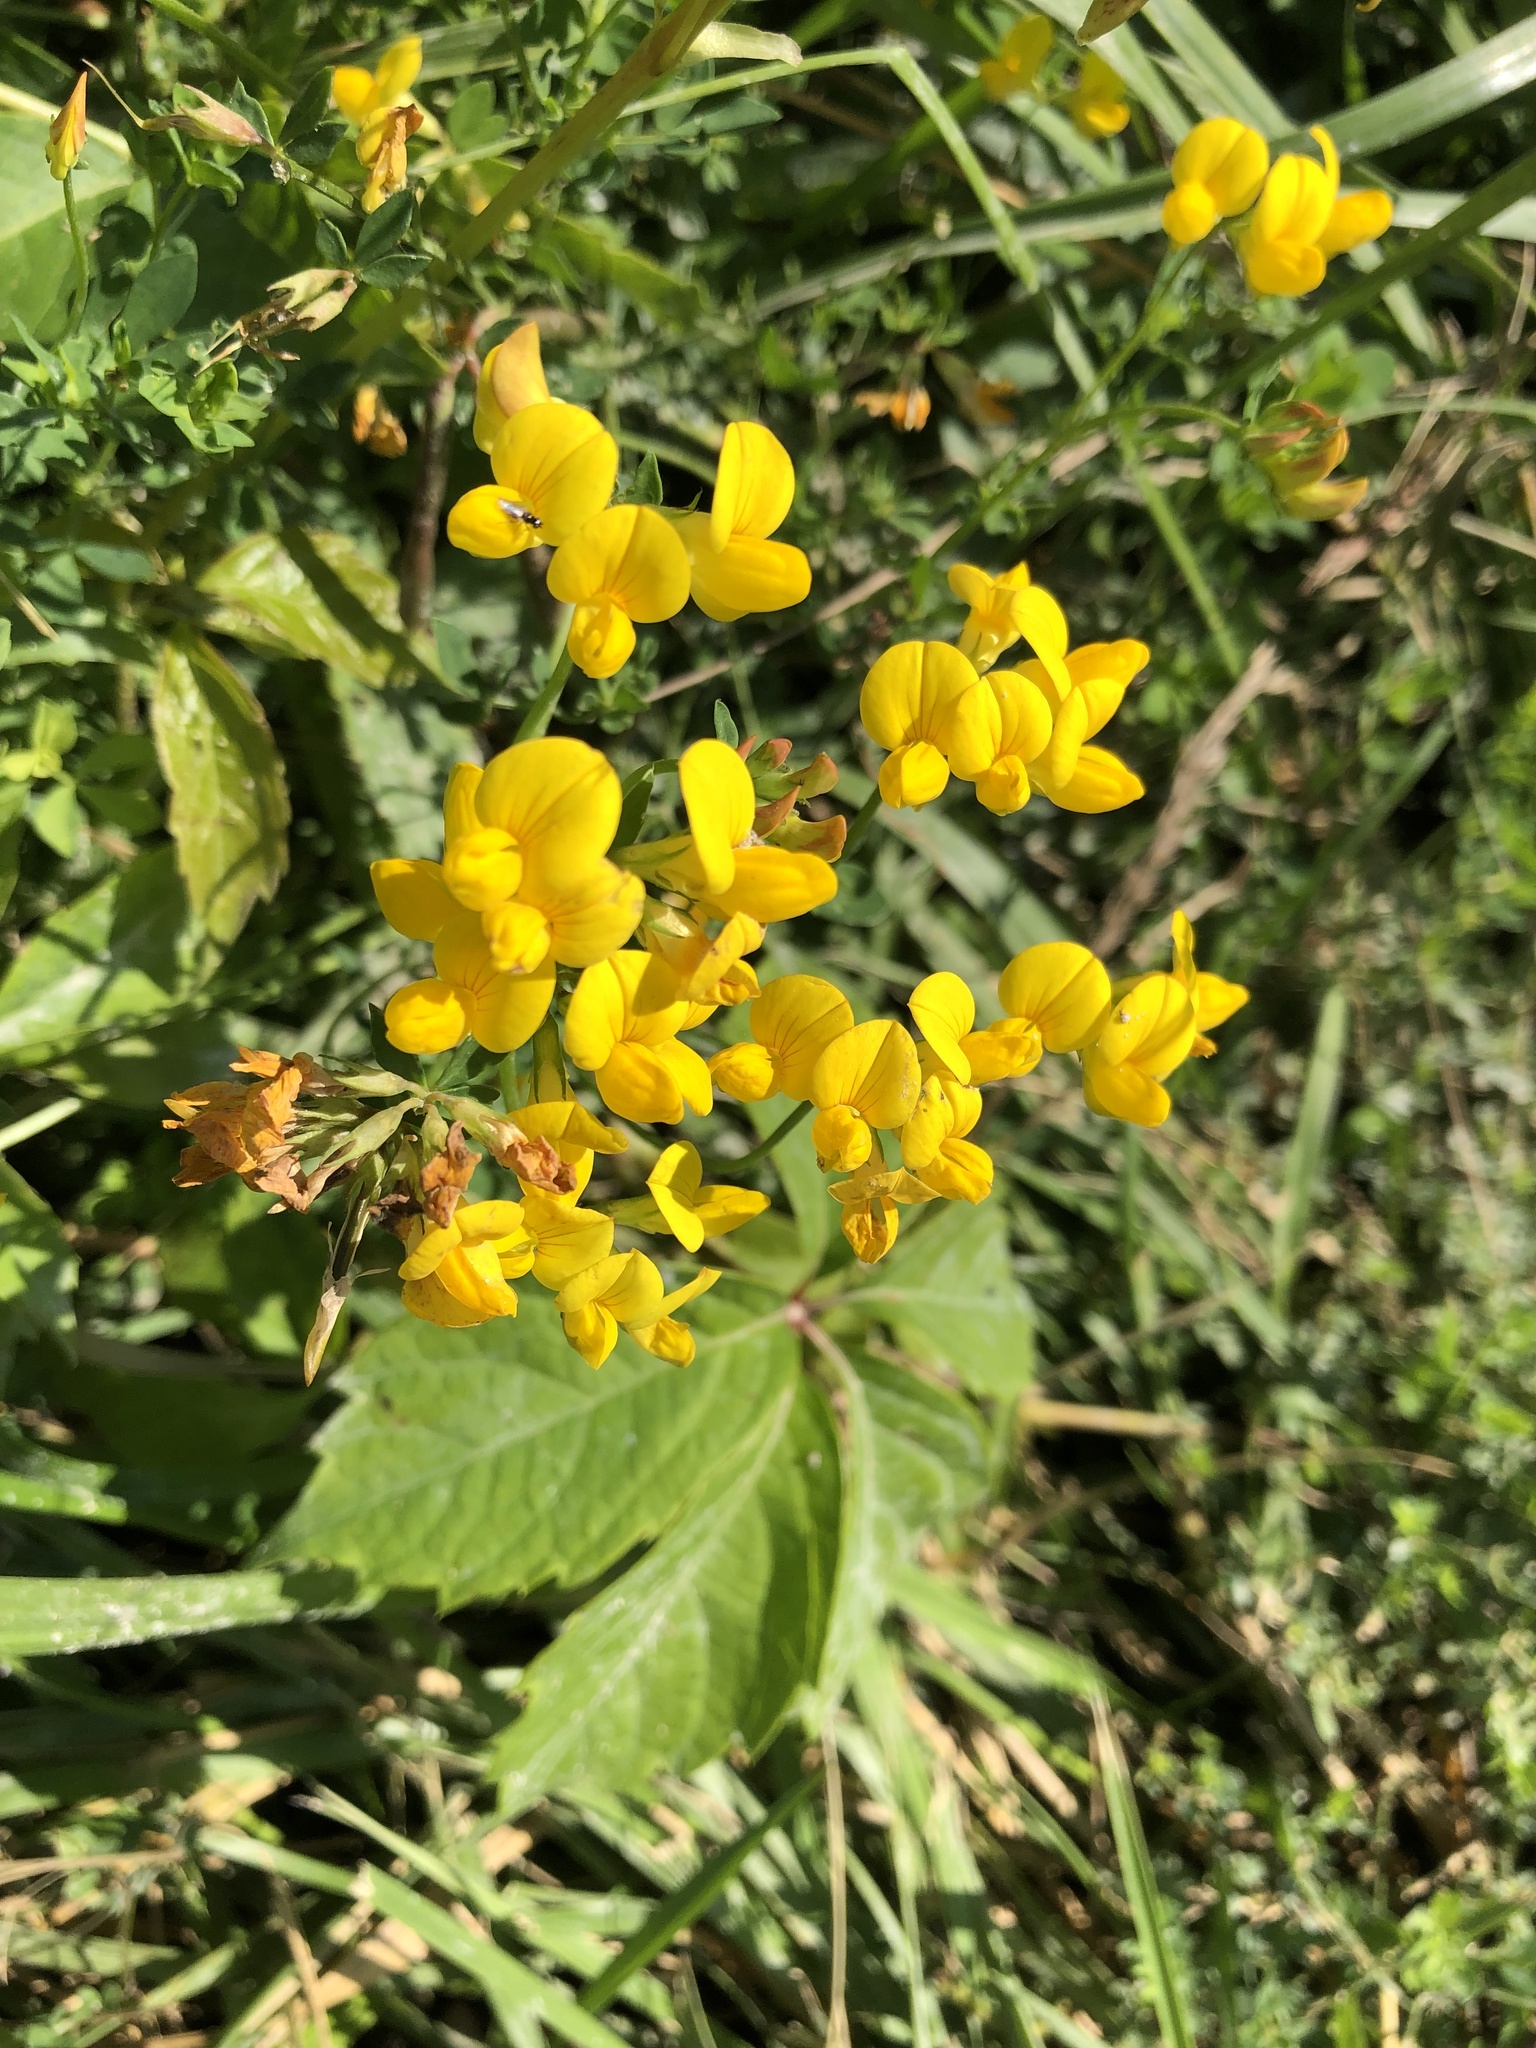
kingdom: Plantae
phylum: Tracheophyta
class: Magnoliopsida
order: Fabales
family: Fabaceae
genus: Lotus
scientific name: Lotus corniculatus
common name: Common bird's-foot-trefoil
